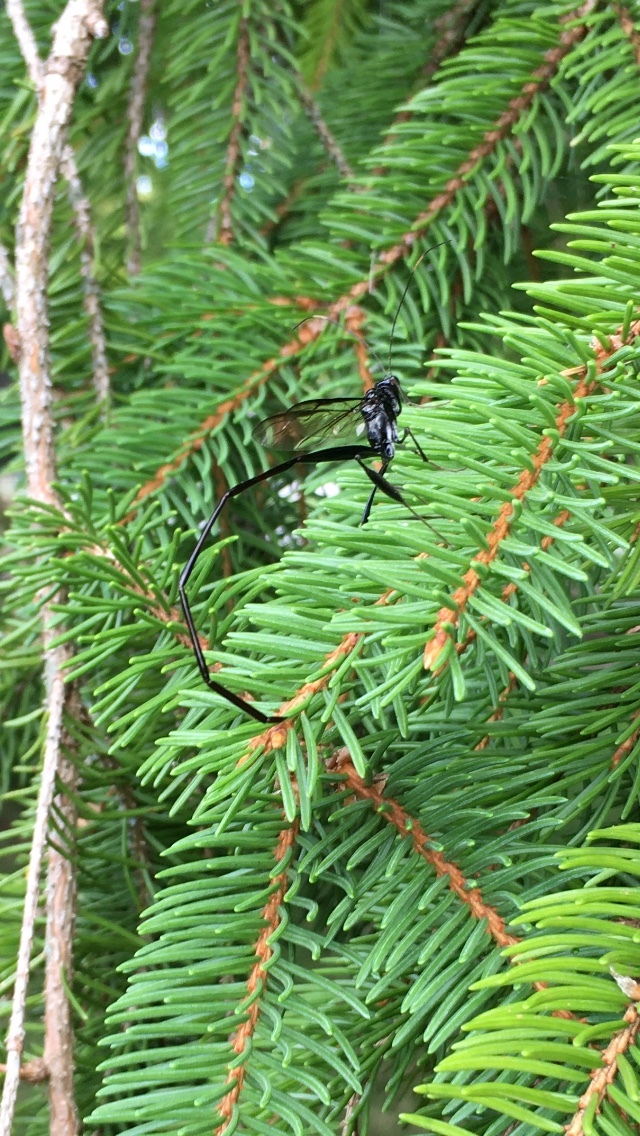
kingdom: Animalia
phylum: Arthropoda
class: Insecta
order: Hymenoptera
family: Pelecinidae
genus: Pelecinus
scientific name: Pelecinus polyturator
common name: American pelecinid wasp
